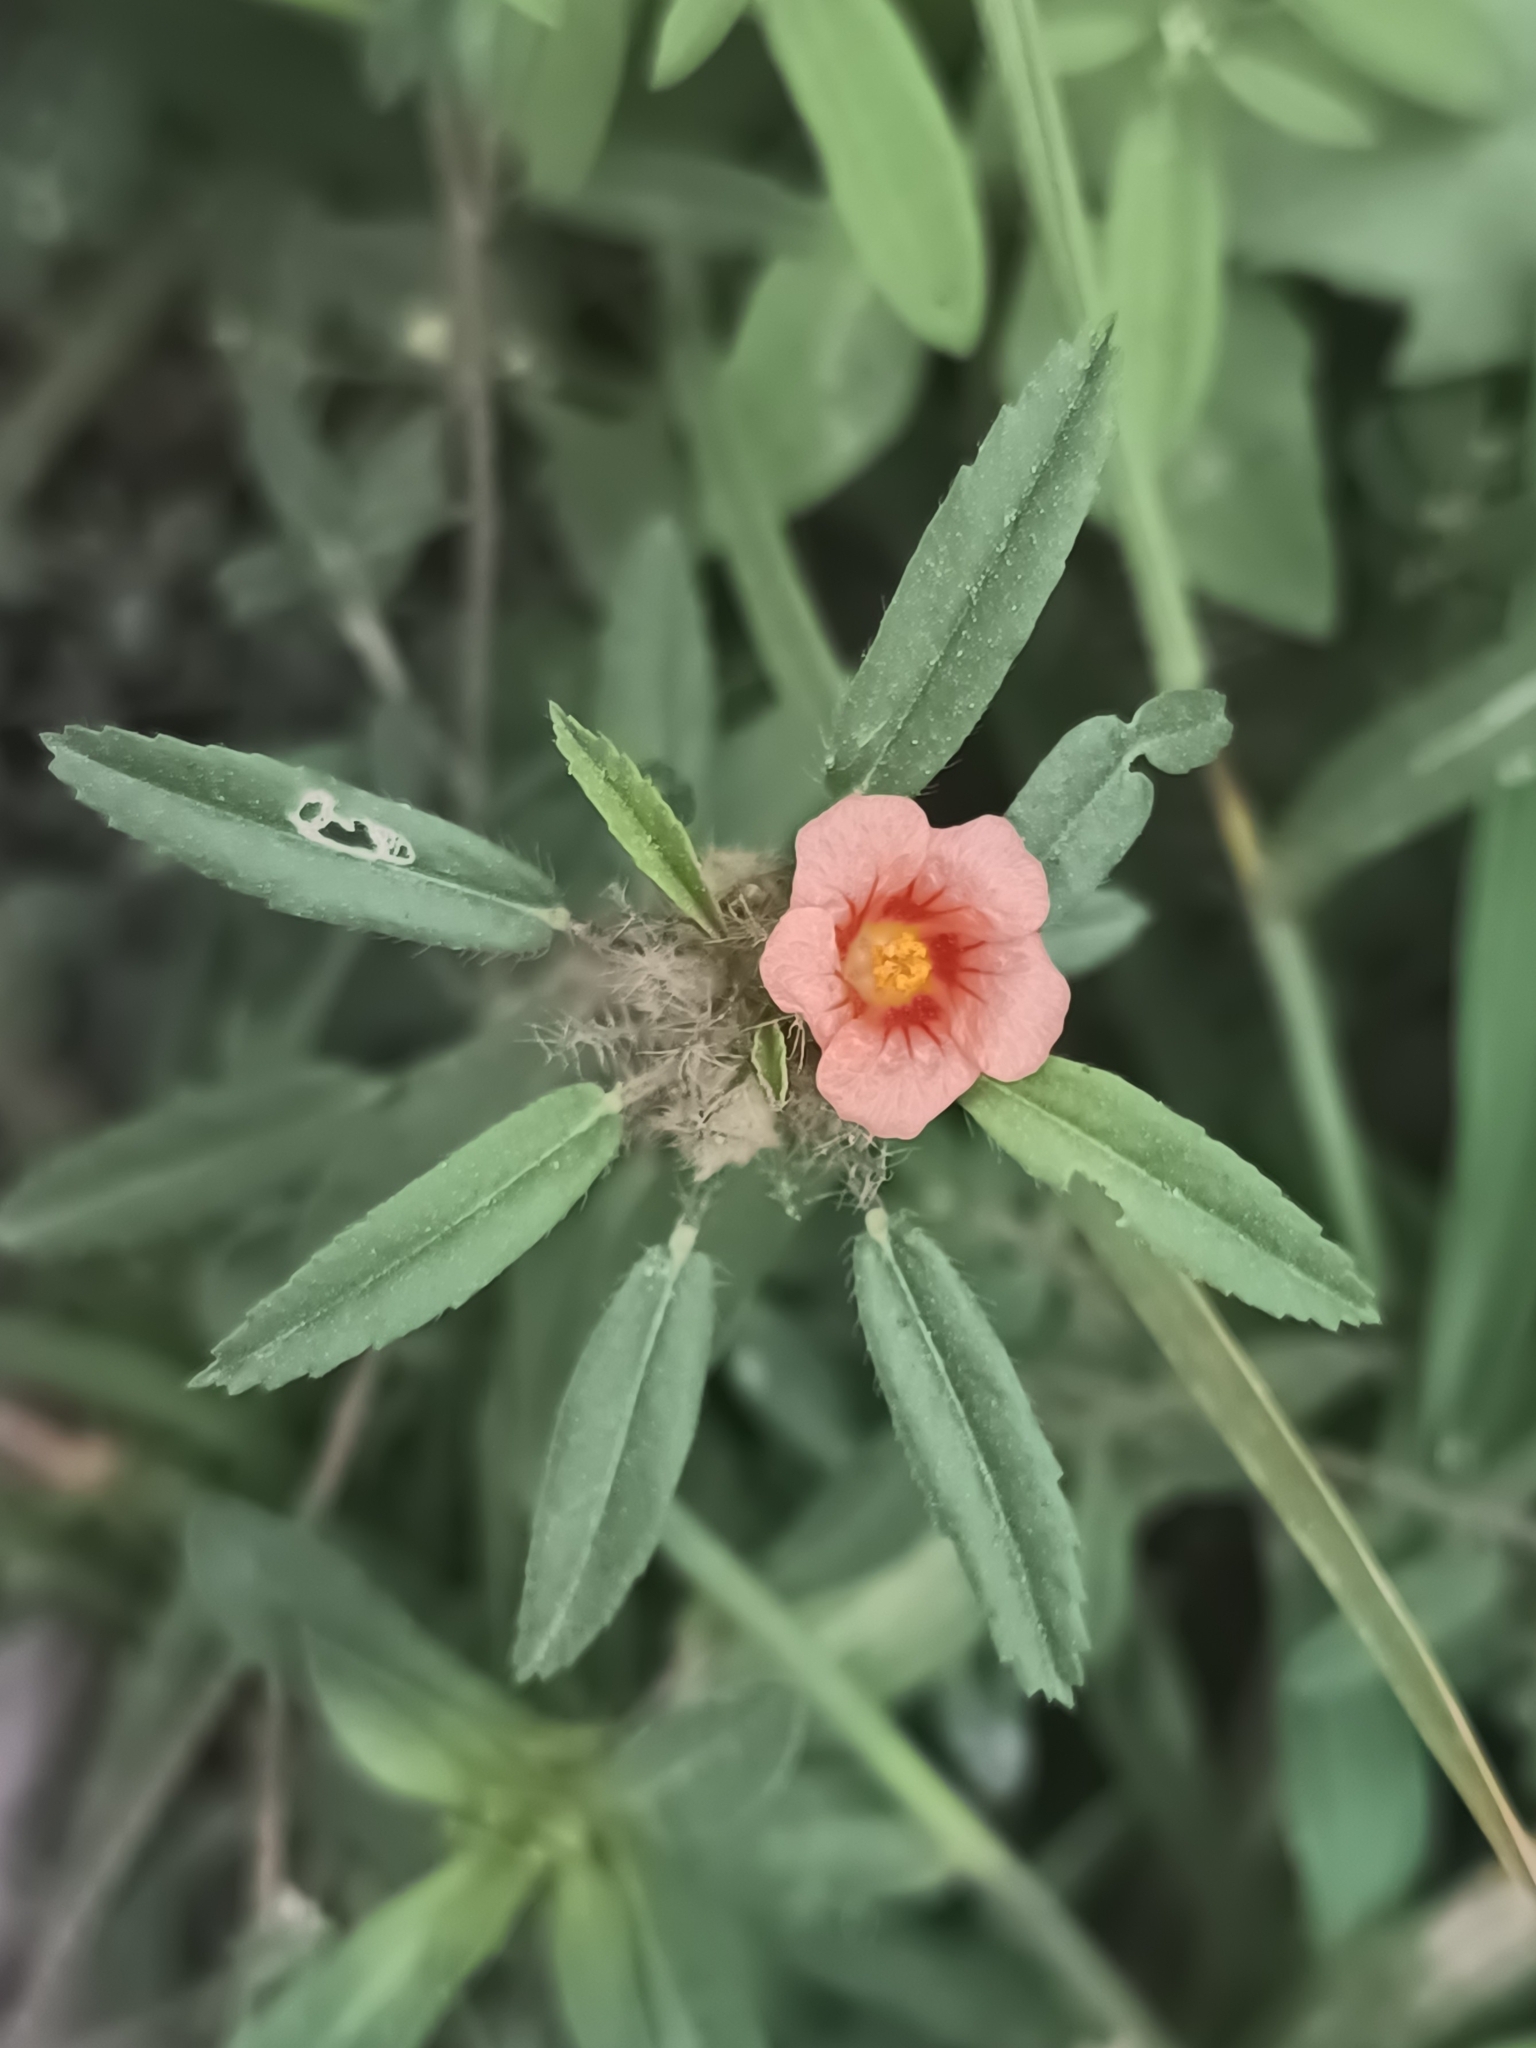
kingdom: Plantae
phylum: Tracheophyta
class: Magnoliopsida
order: Malvales
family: Malvaceae
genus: Sida
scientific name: Sida ciliaris
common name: Bracted fanpetals
